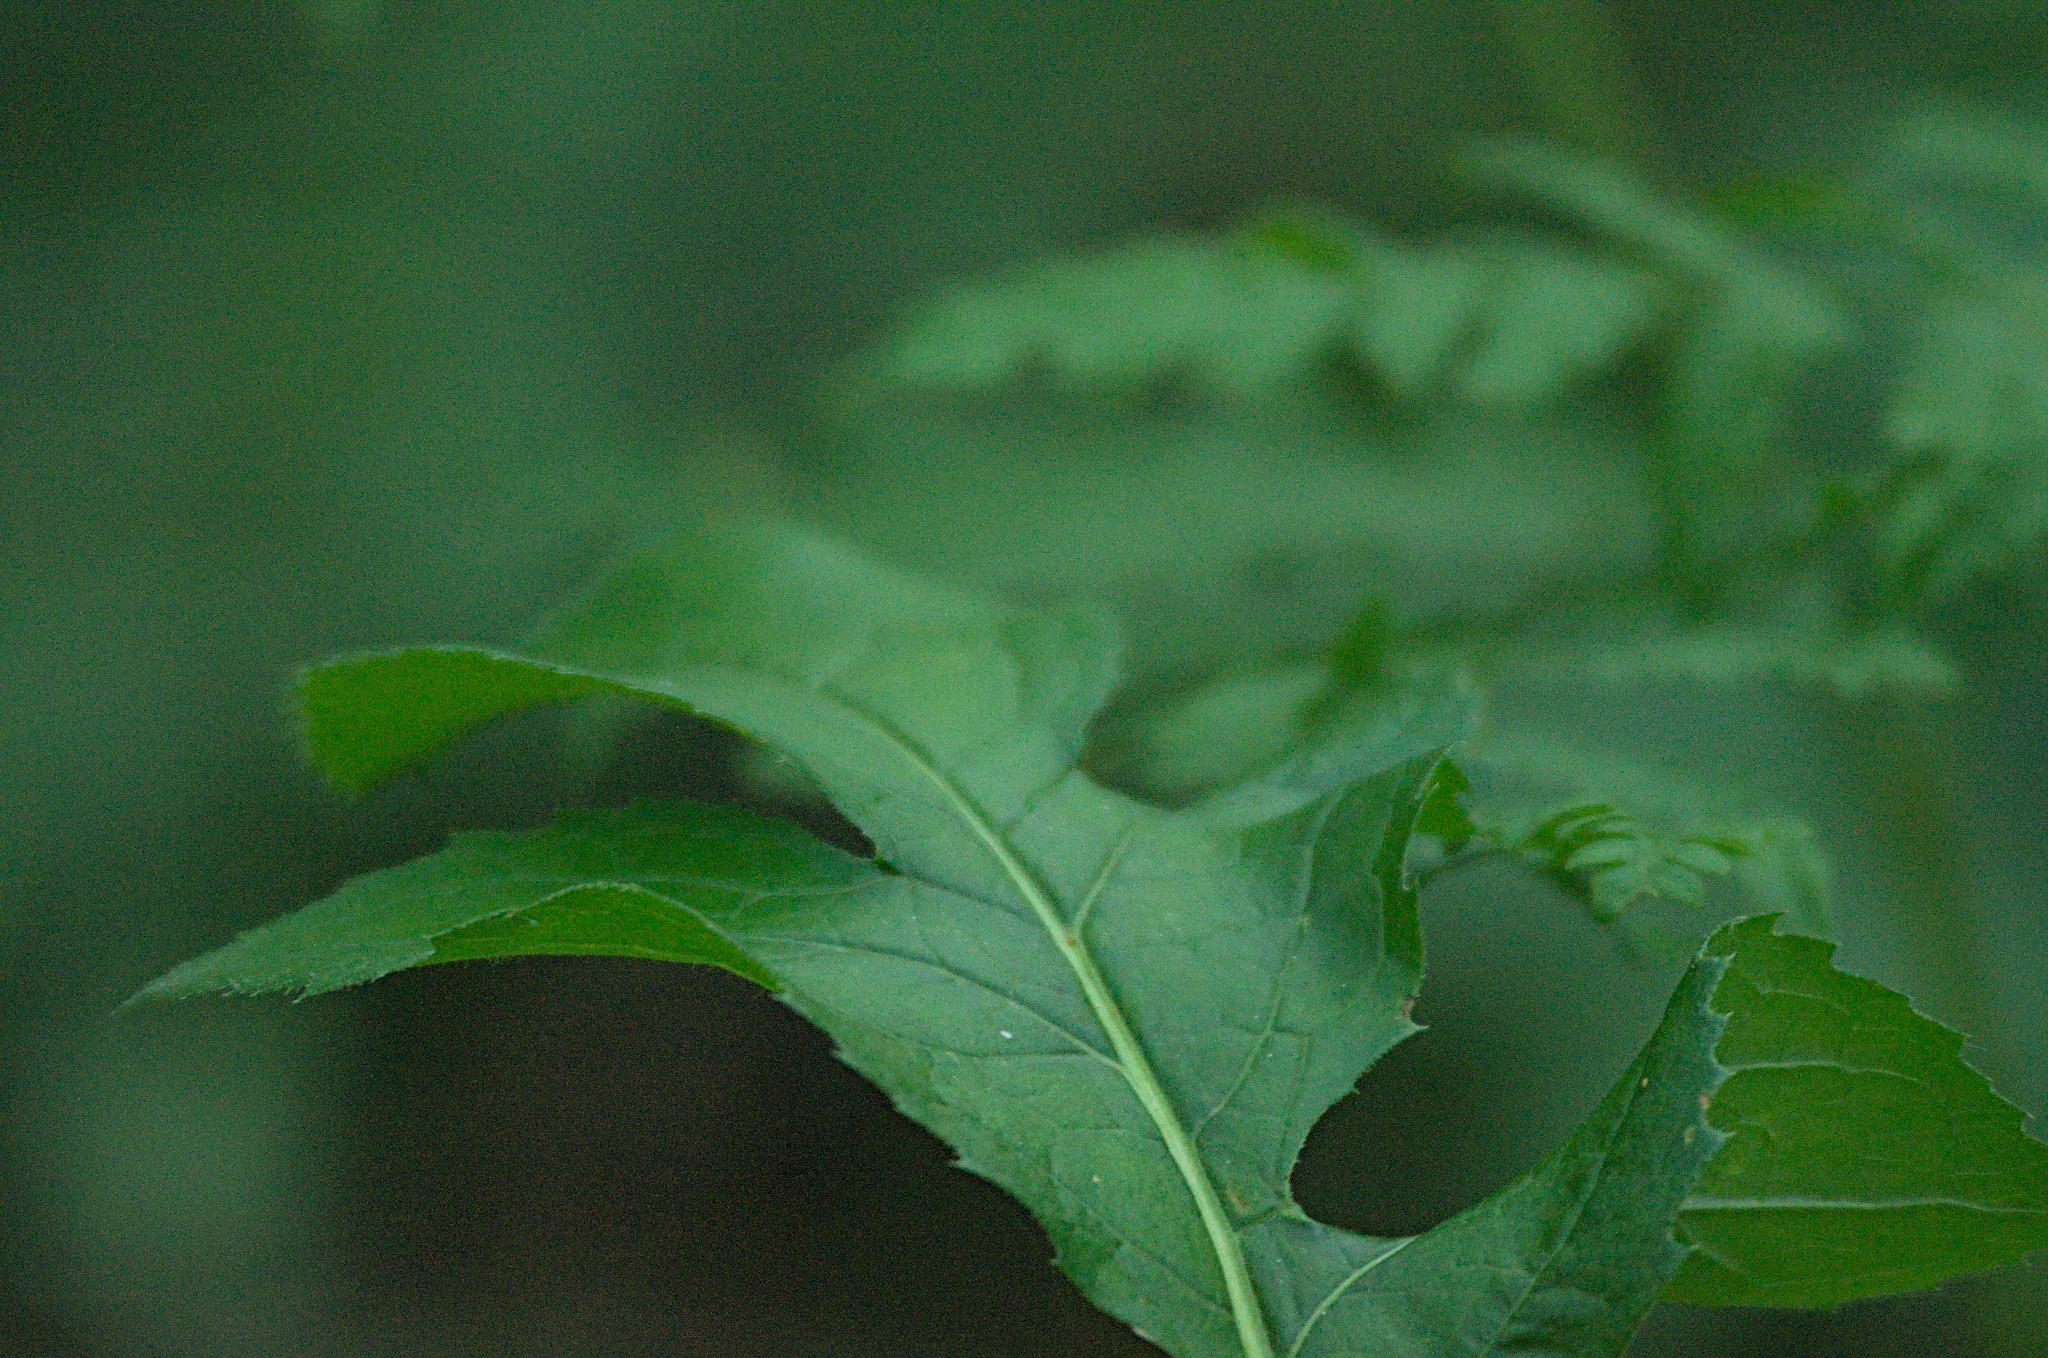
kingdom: Plantae
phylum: Tracheophyta
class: Magnoliopsida
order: Asterales
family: Asteraceae
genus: Serratula
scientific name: Serratula coronata
